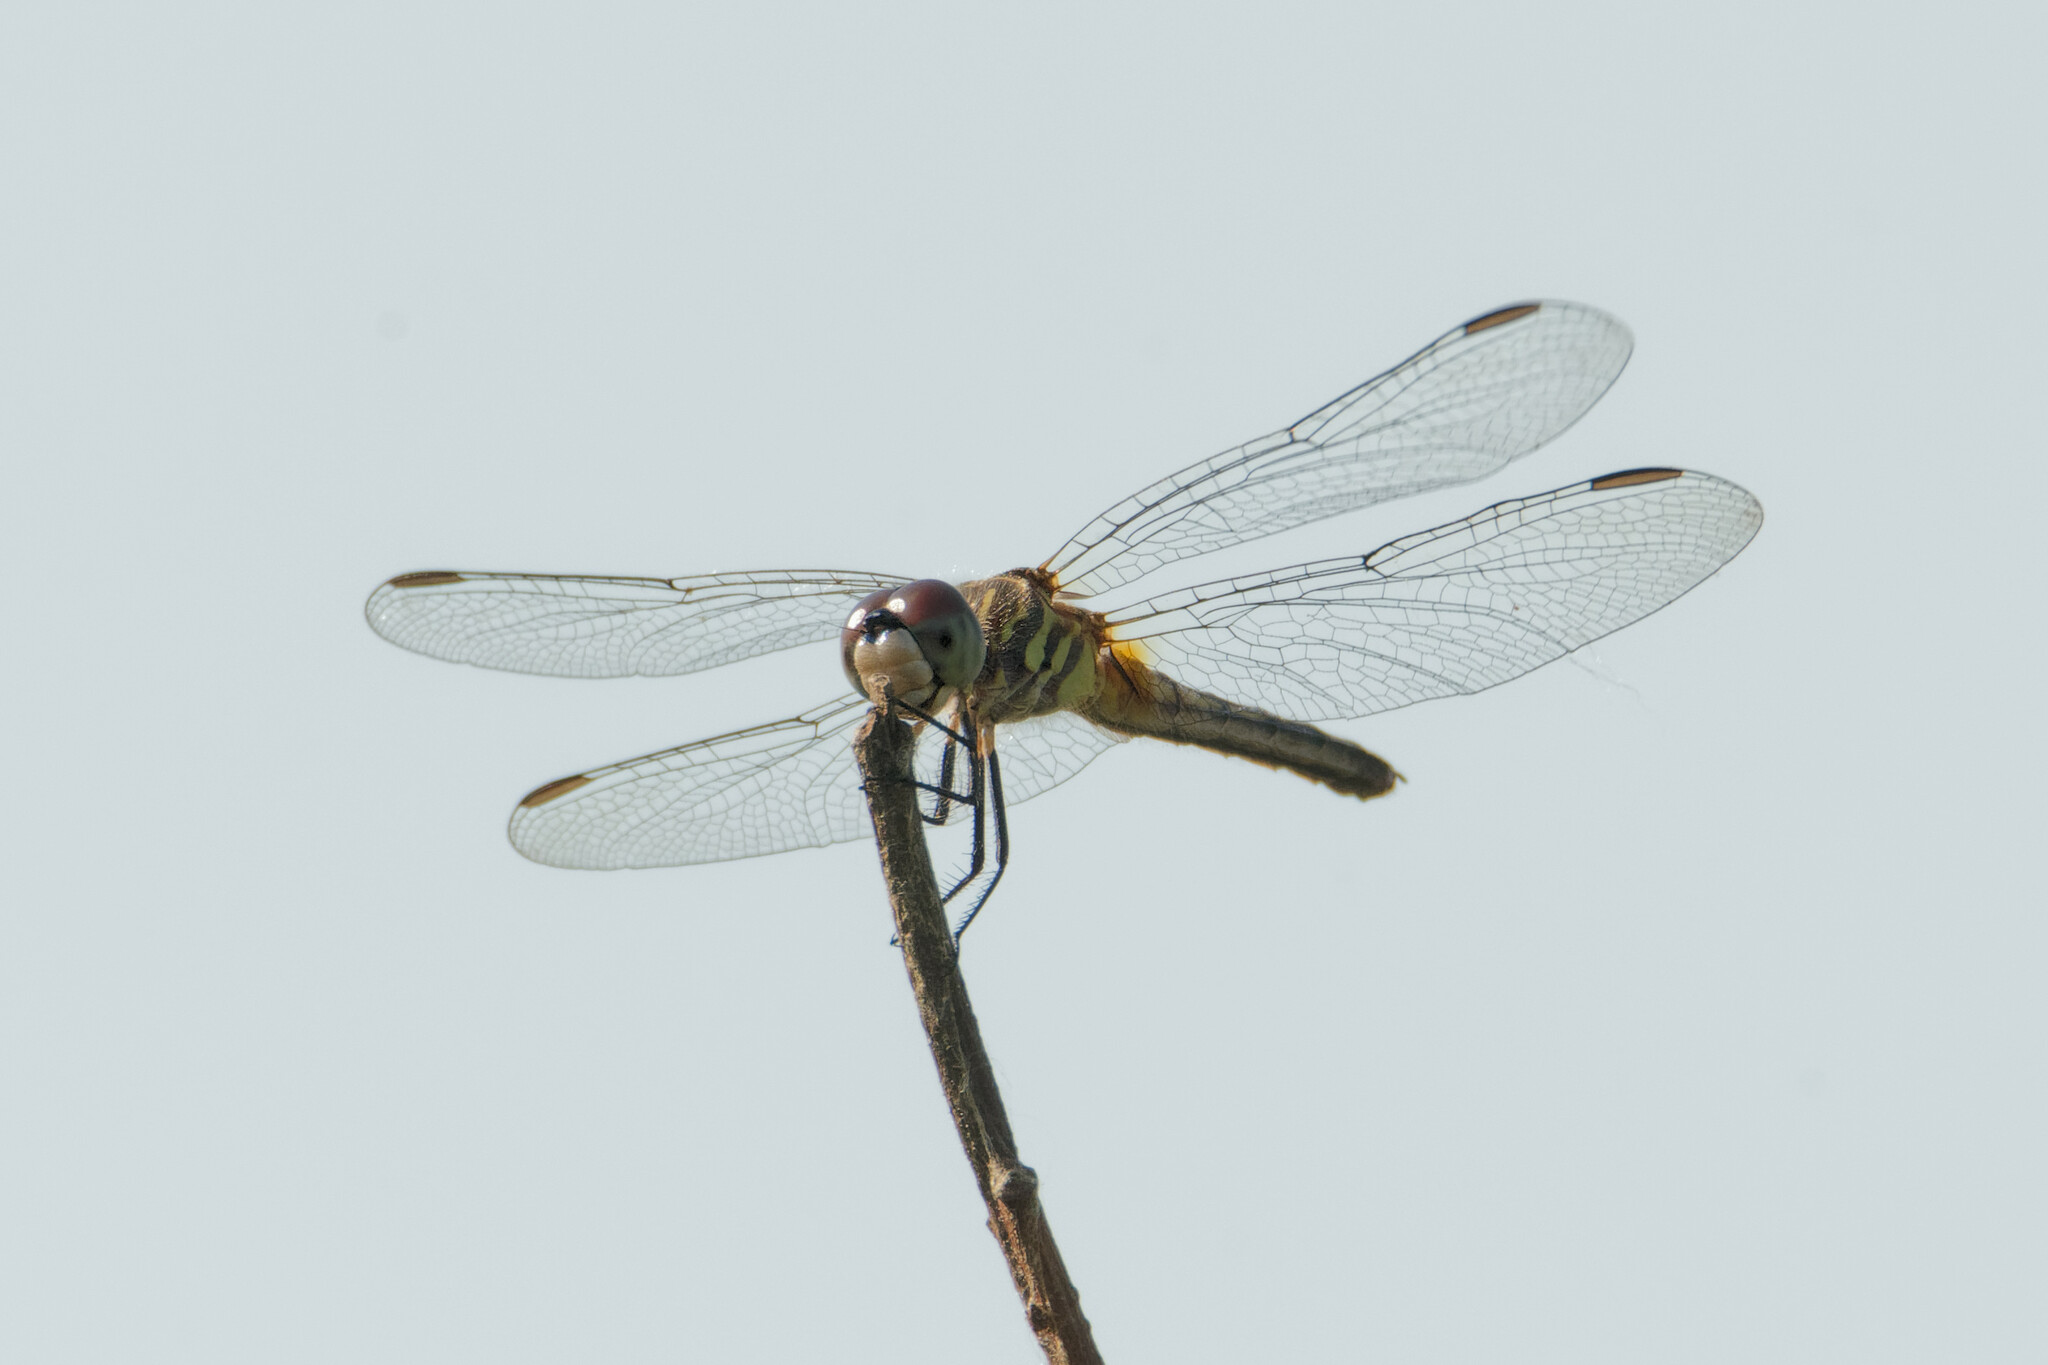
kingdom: Animalia
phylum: Arthropoda
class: Insecta
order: Odonata
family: Libellulidae
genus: Pachydiplax
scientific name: Pachydiplax longipennis
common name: Blue dasher
